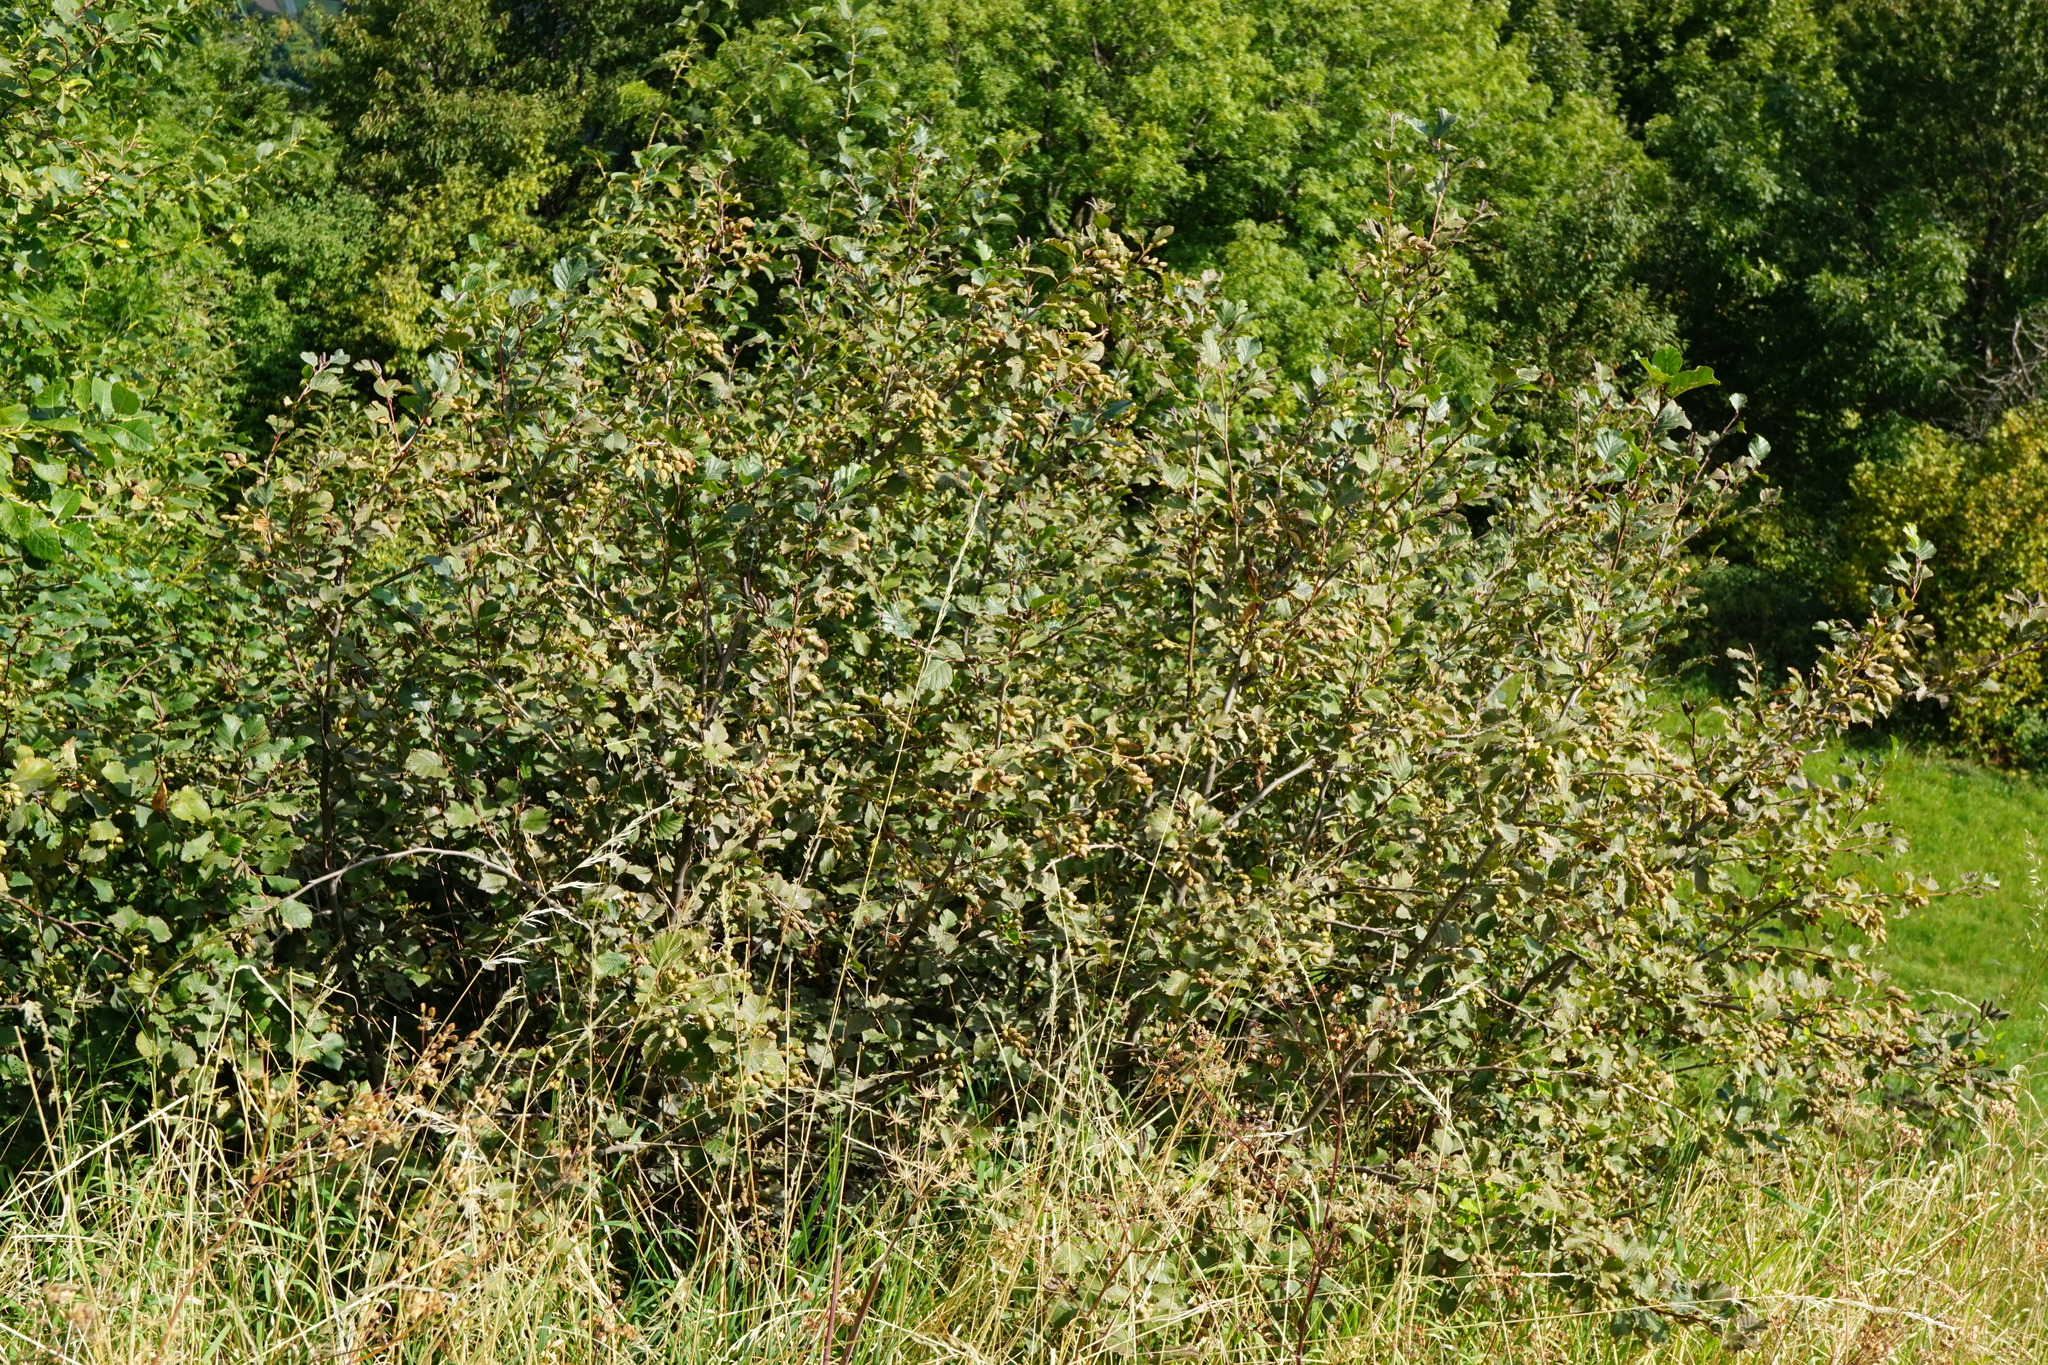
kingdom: Plantae
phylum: Tracheophyta
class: Magnoliopsida
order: Fagales
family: Betulaceae
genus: Alnus
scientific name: Alnus alnobetula
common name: Green alder
